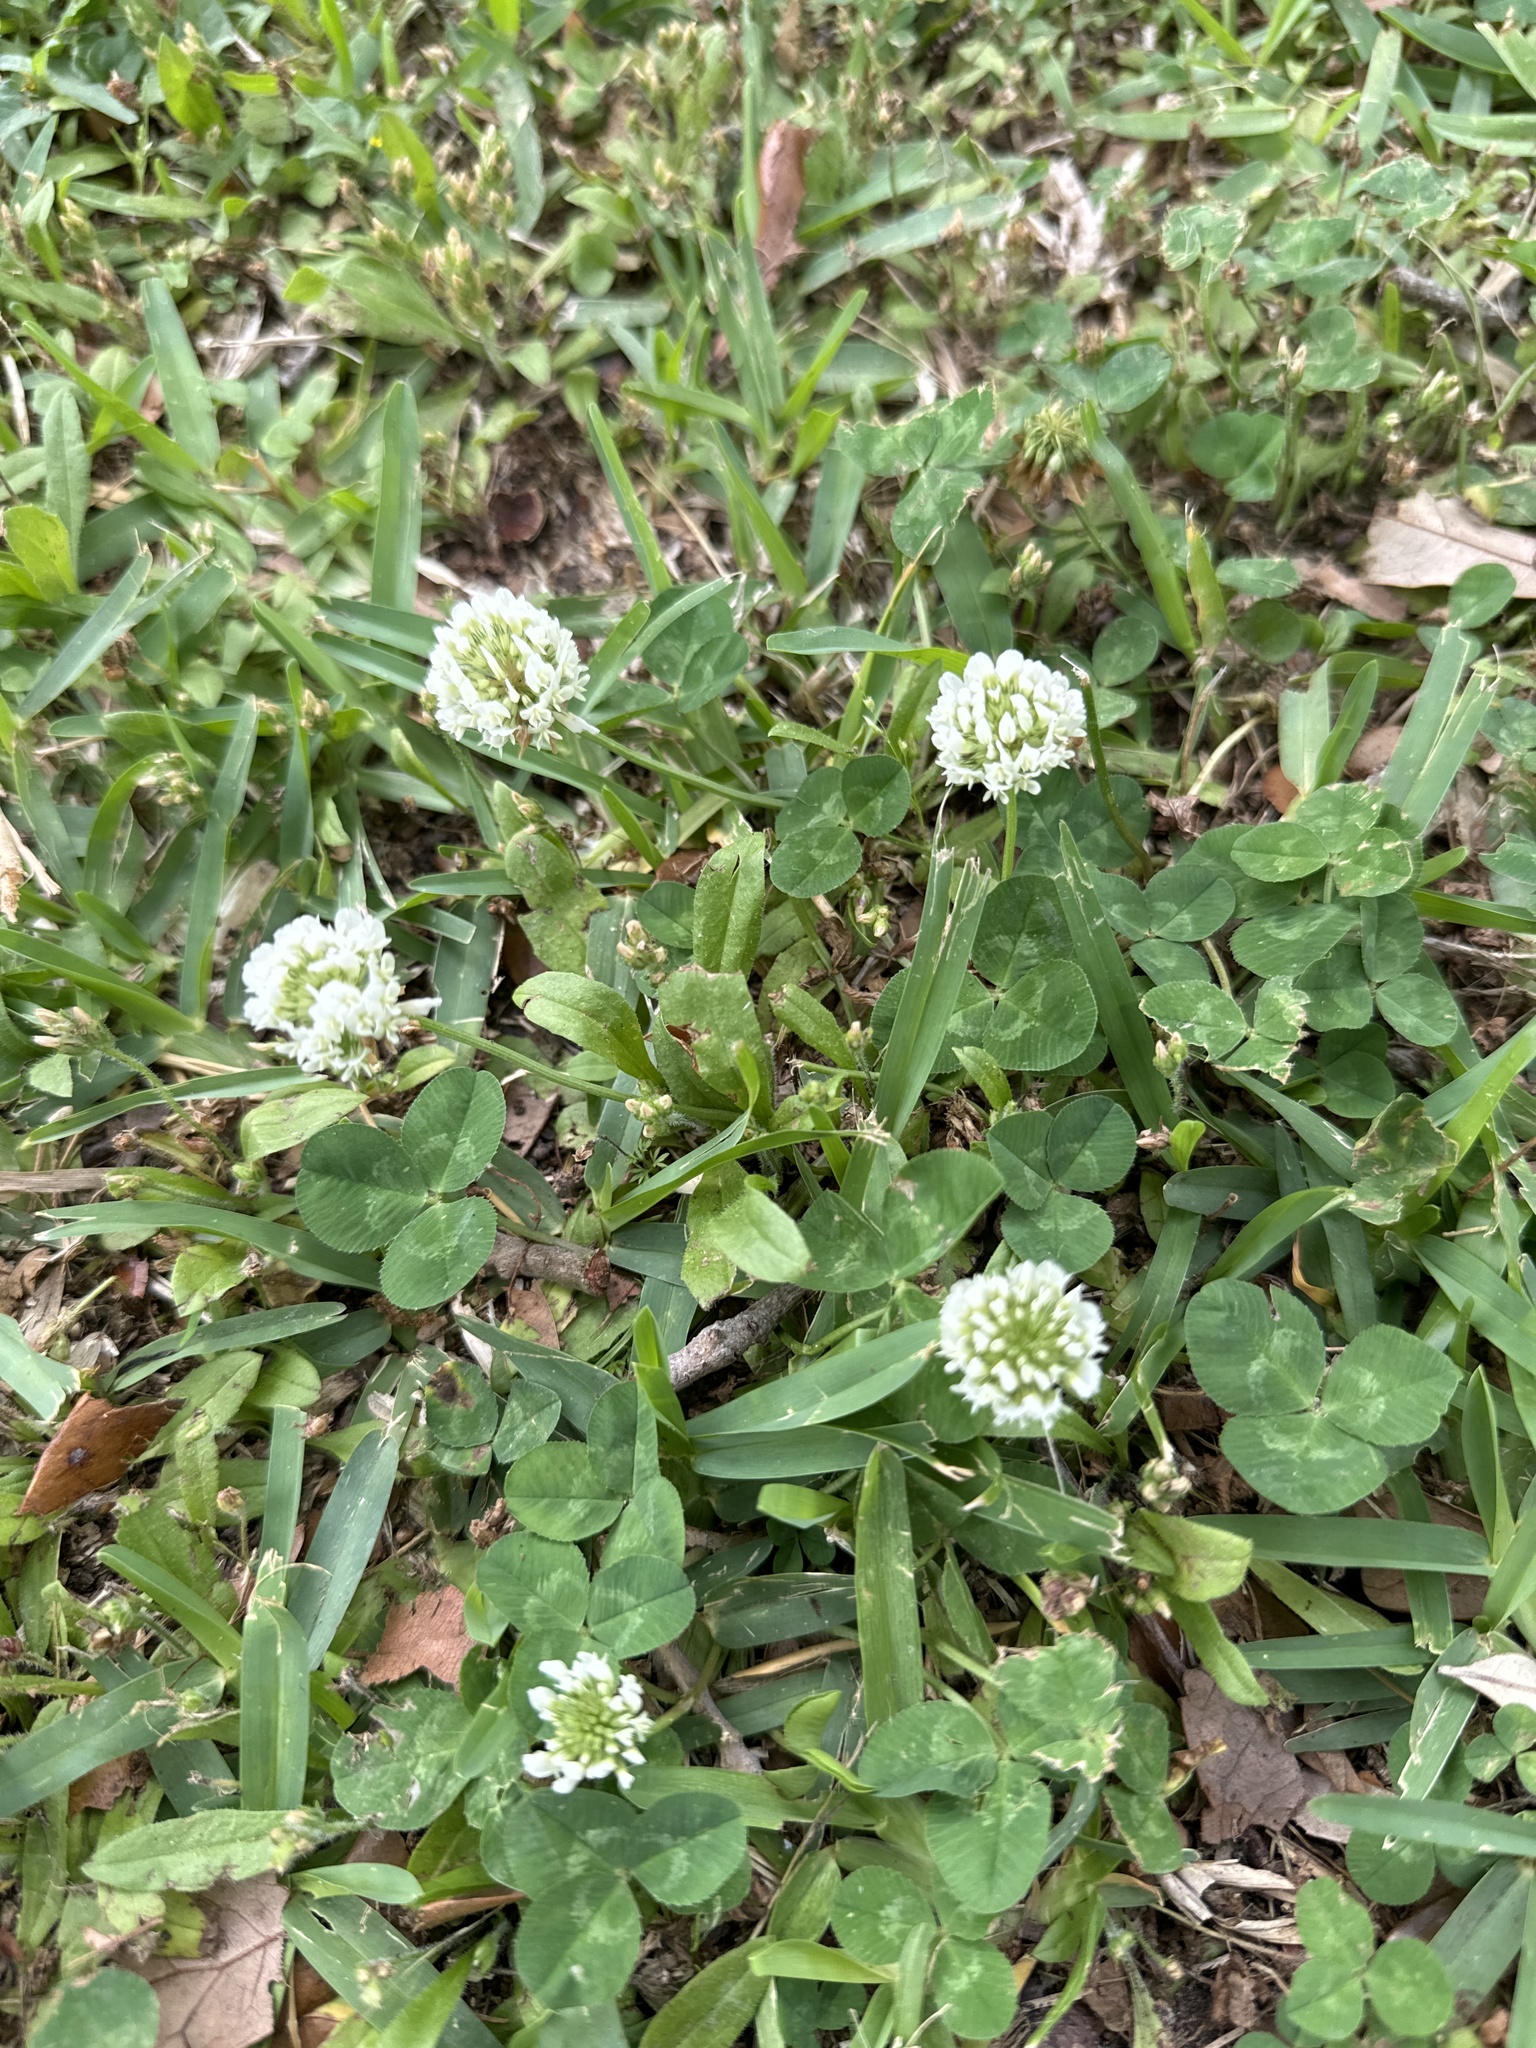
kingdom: Plantae
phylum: Tracheophyta
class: Magnoliopsida
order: Fabales
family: Fabaceae
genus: Trifolium
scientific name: Trifolium repens
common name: White clover
